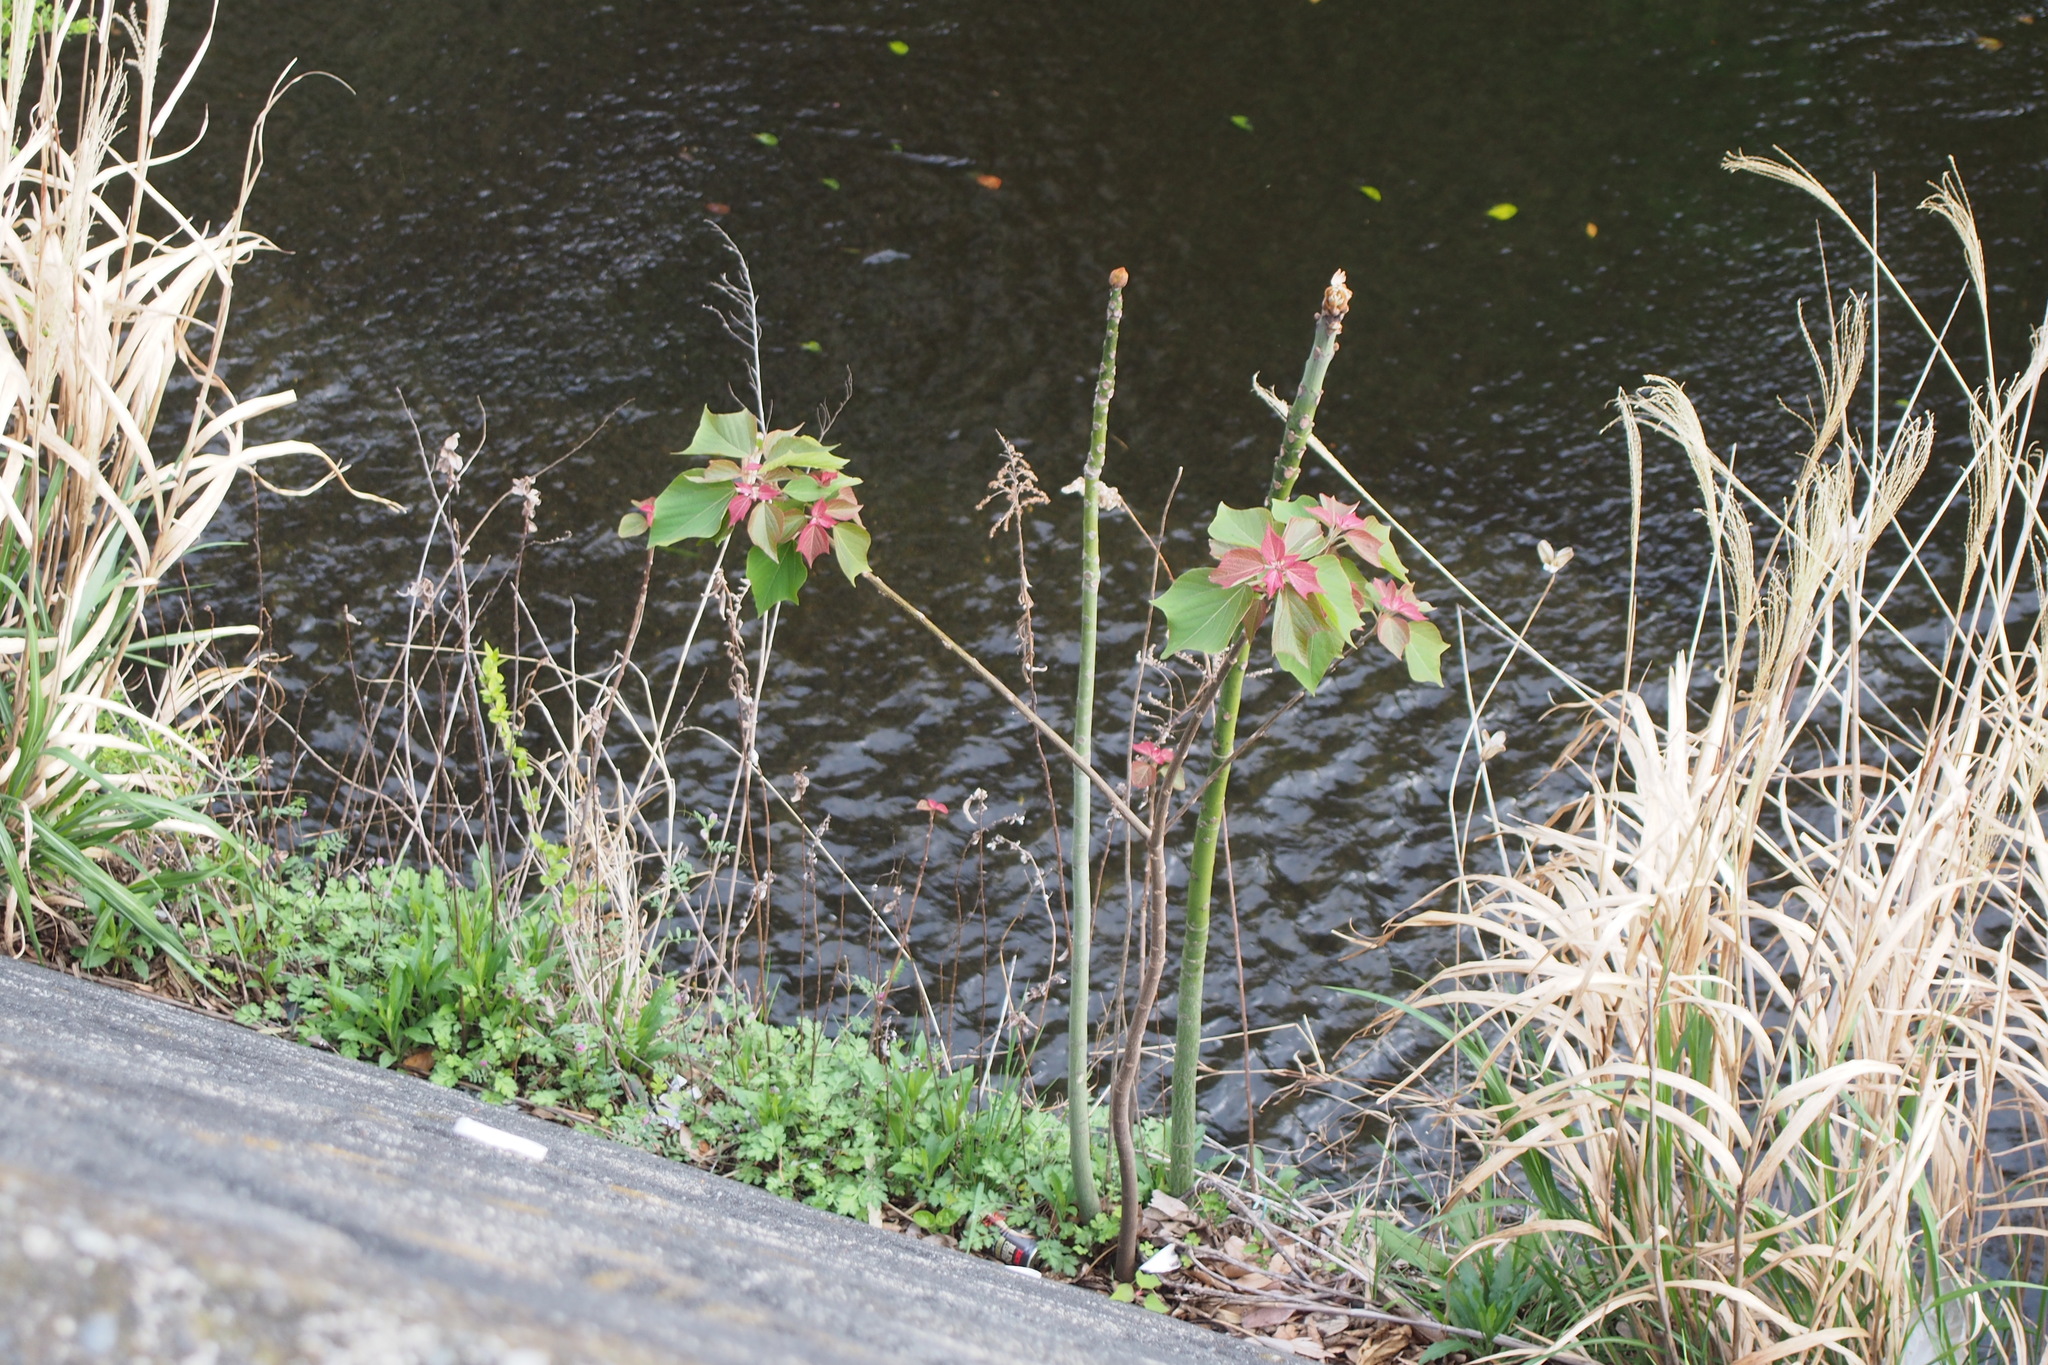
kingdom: Plantae
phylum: Tracheophyta
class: Magnoliopsida
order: Malpighiales
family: Euphorbiaceae
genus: Mallotus
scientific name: Mallotus japonicus
